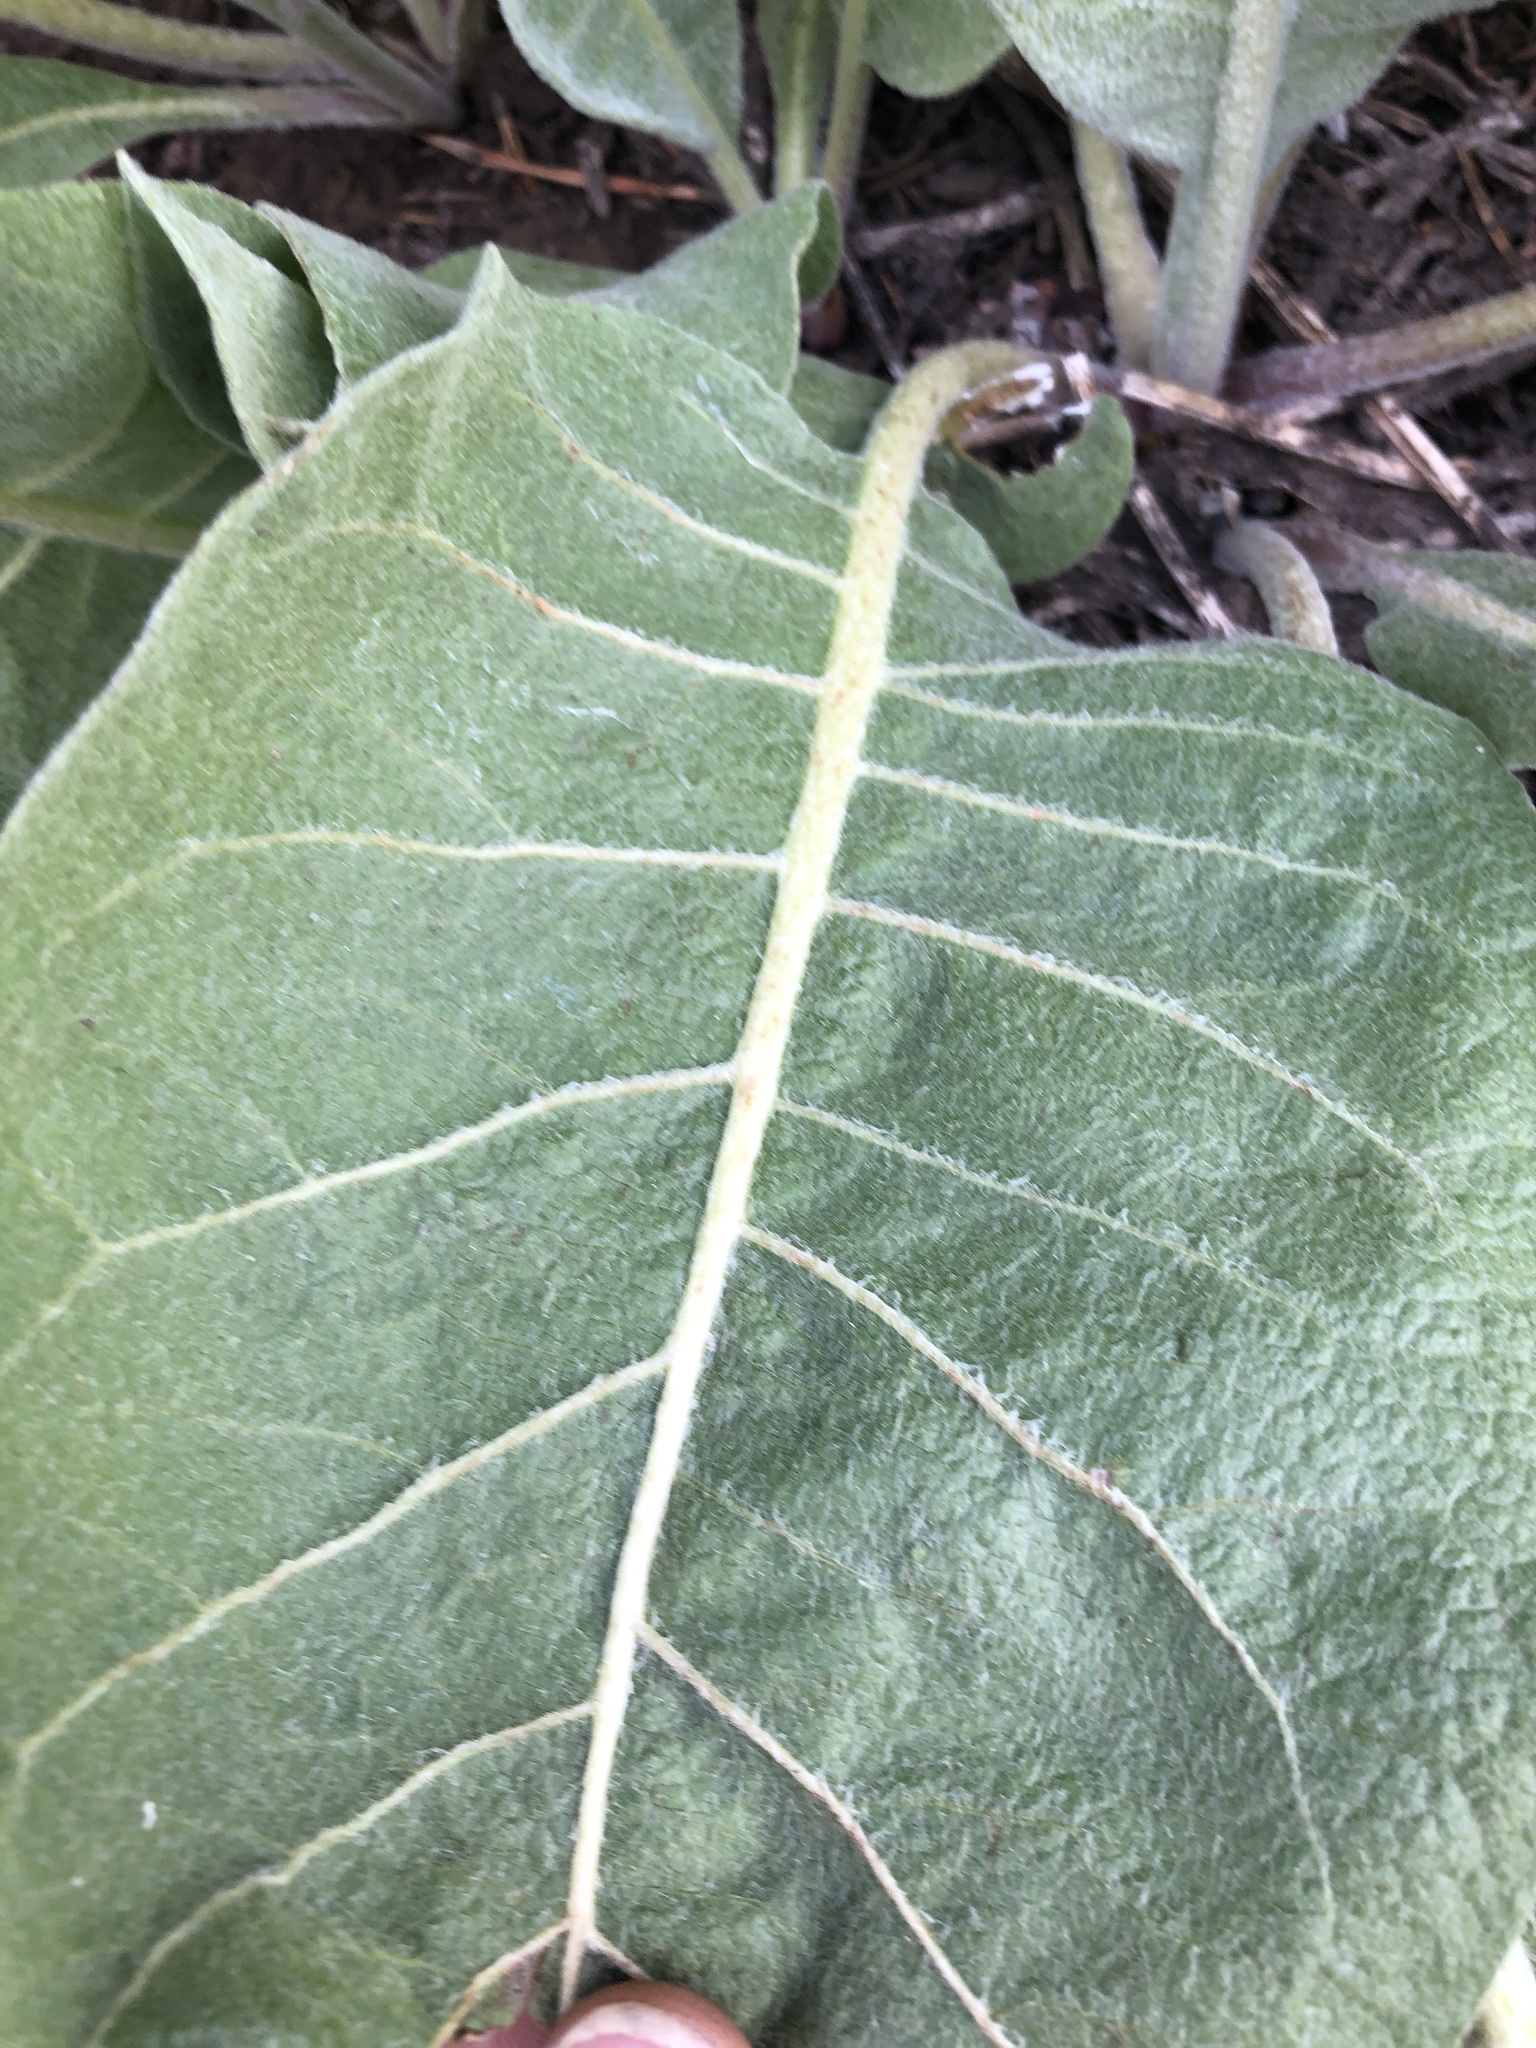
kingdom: Plantae
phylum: Tracheophyta
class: Magnoliopsida
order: Asterales
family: Asteraceae
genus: Wyethia
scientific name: Wyethia mollis
